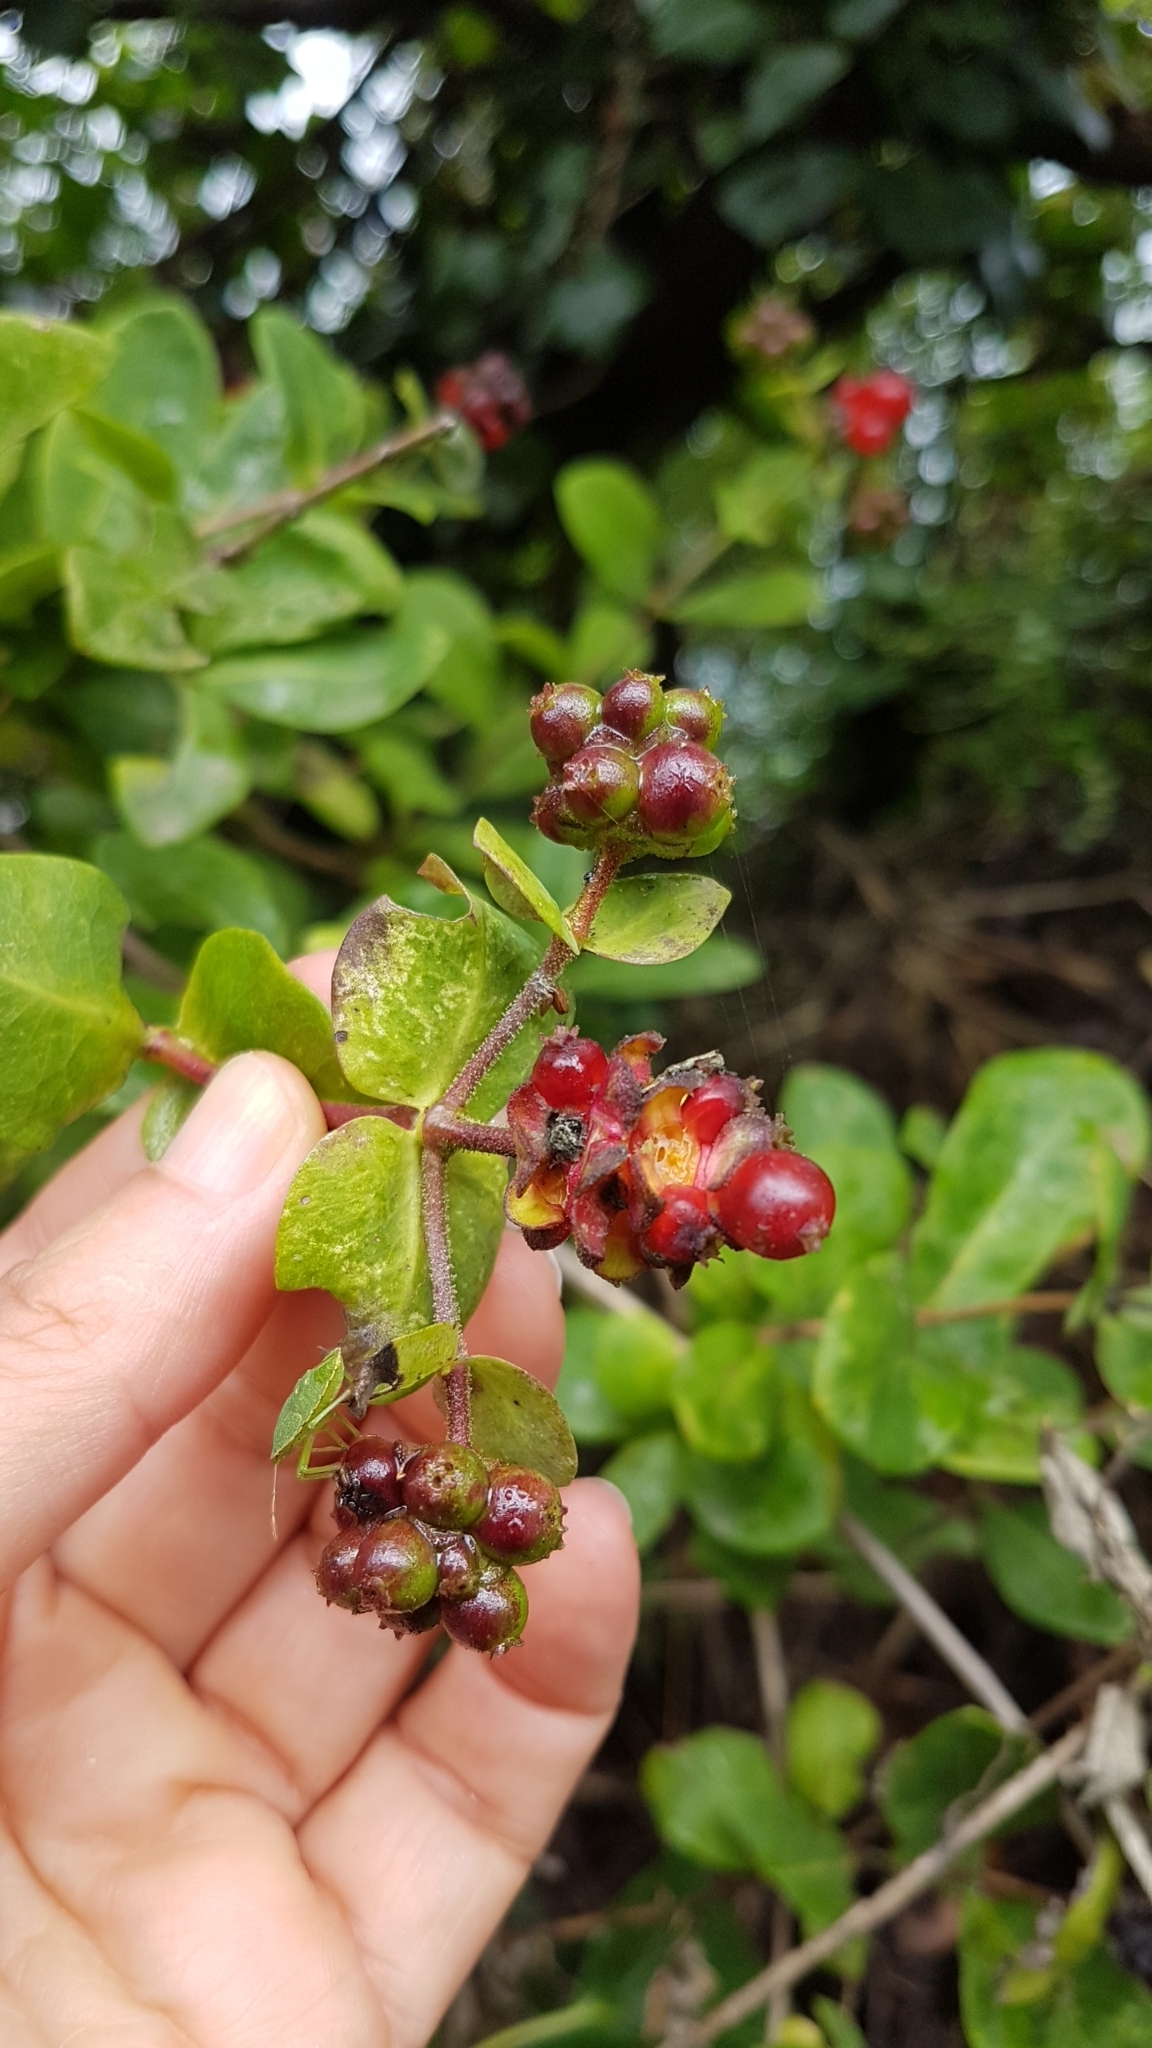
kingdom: Plantae
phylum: Tracheophyta
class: Magnoliopsida
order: Dipsacales
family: Caprifoliaceae
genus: Lonicera
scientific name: Lonicera periclymenum
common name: European honeysuckle
